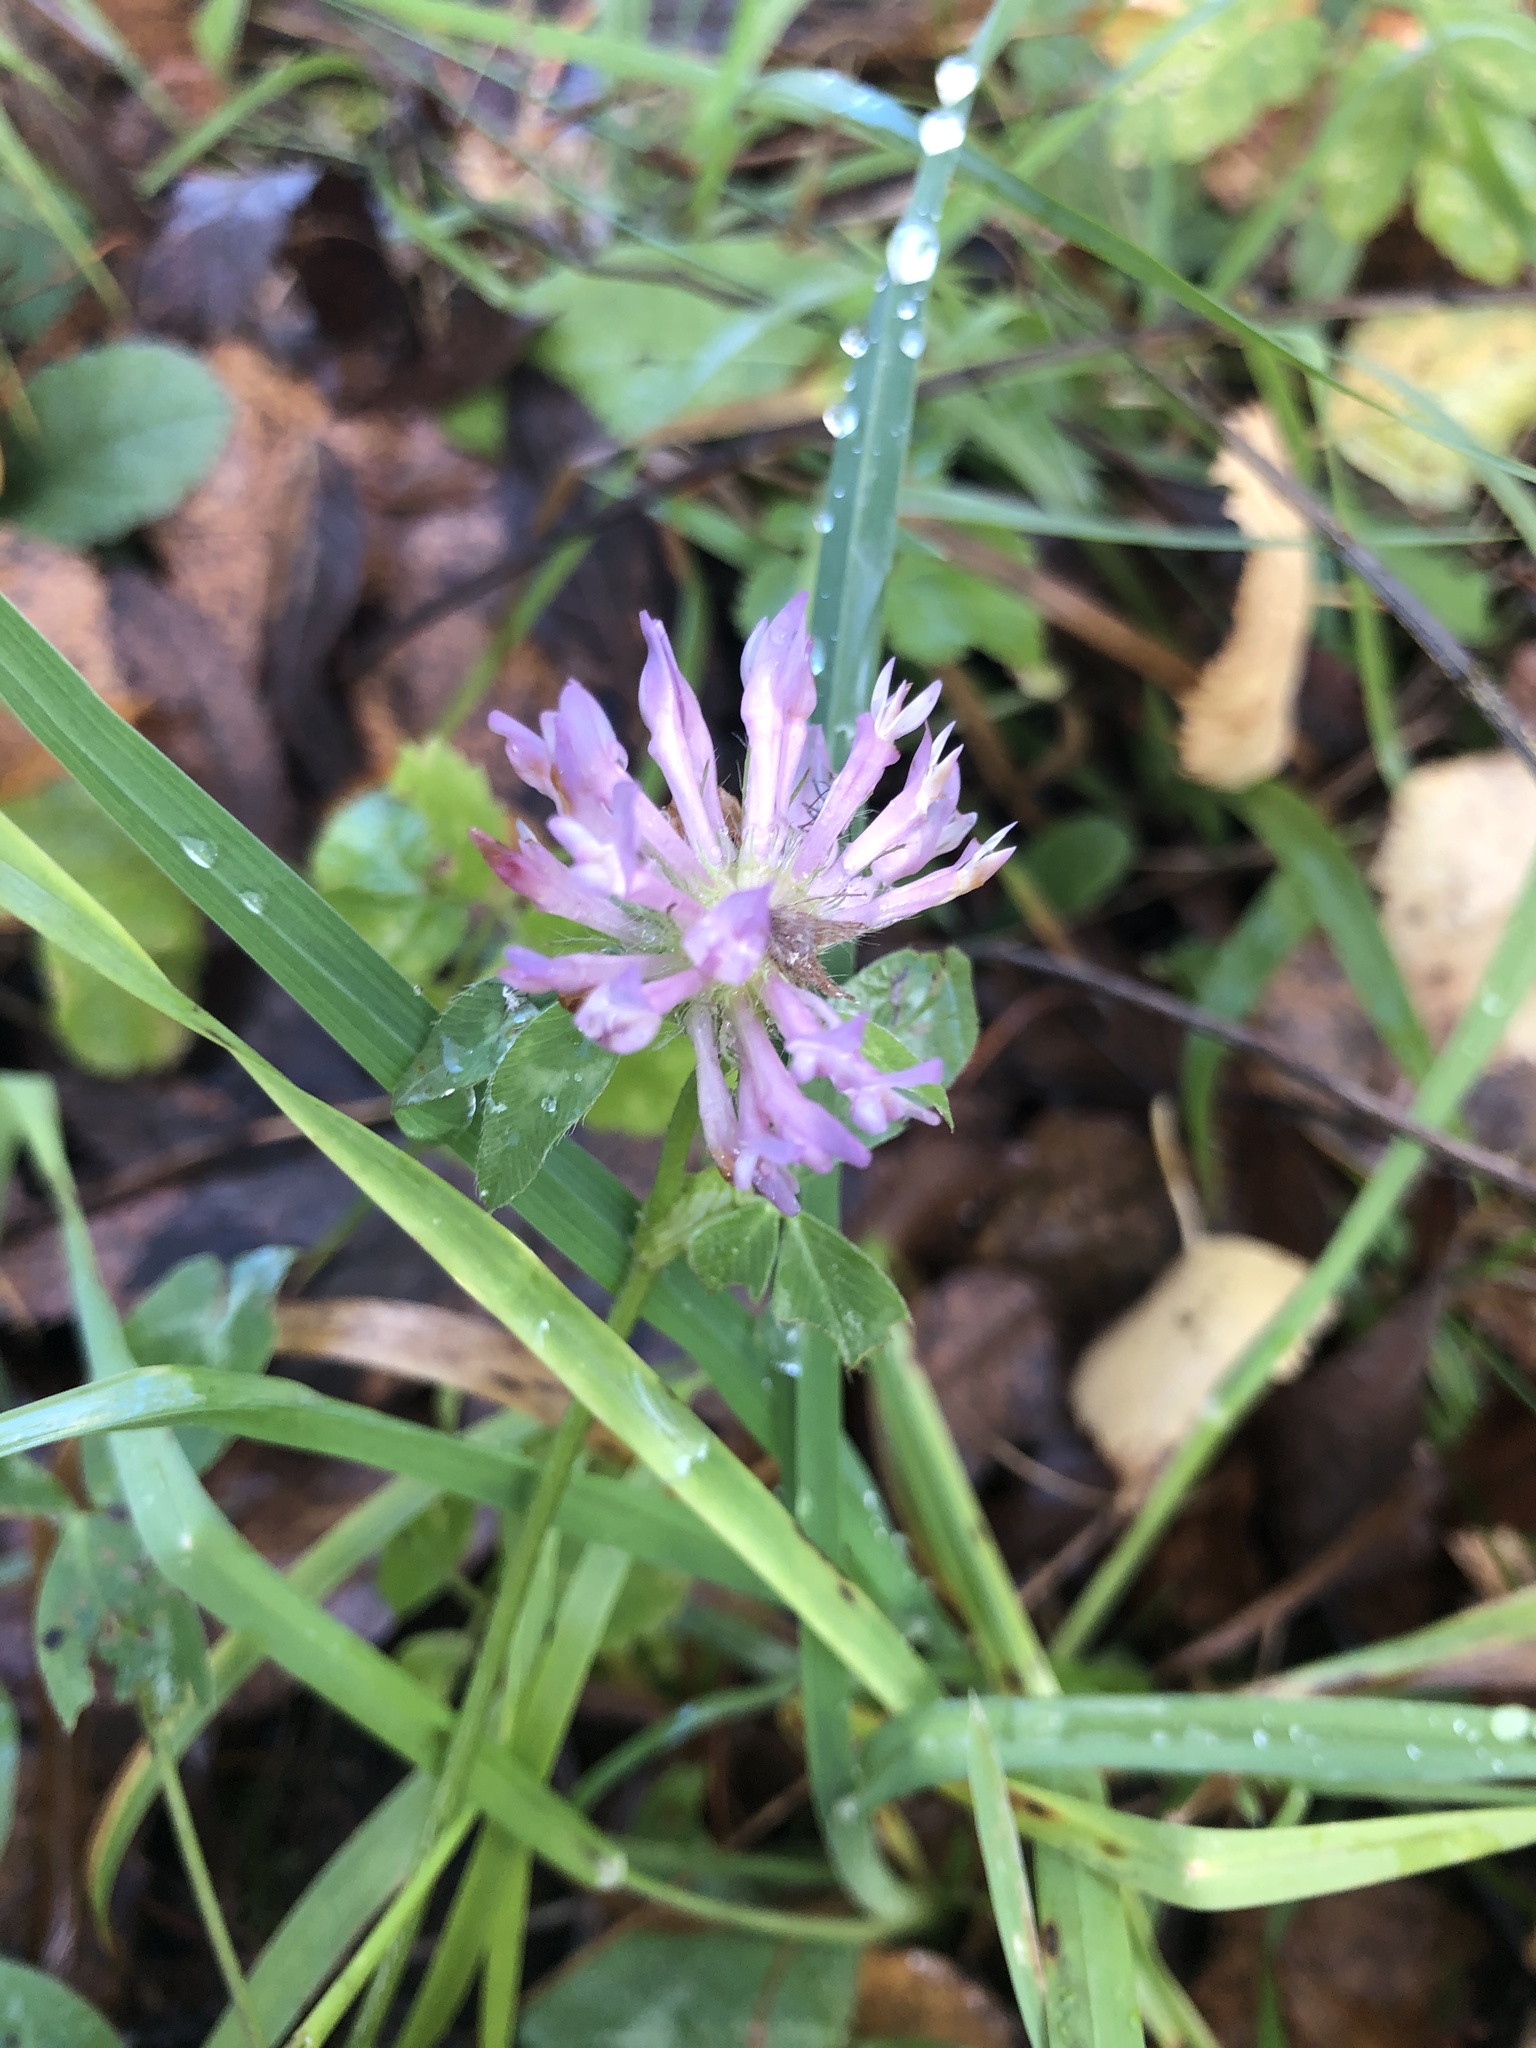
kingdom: Plantae
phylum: Tracheophyta
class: Magnoliopsida
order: Fabales
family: Fabaceae
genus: Trifolium
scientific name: Trifolium pratense
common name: Red clover
